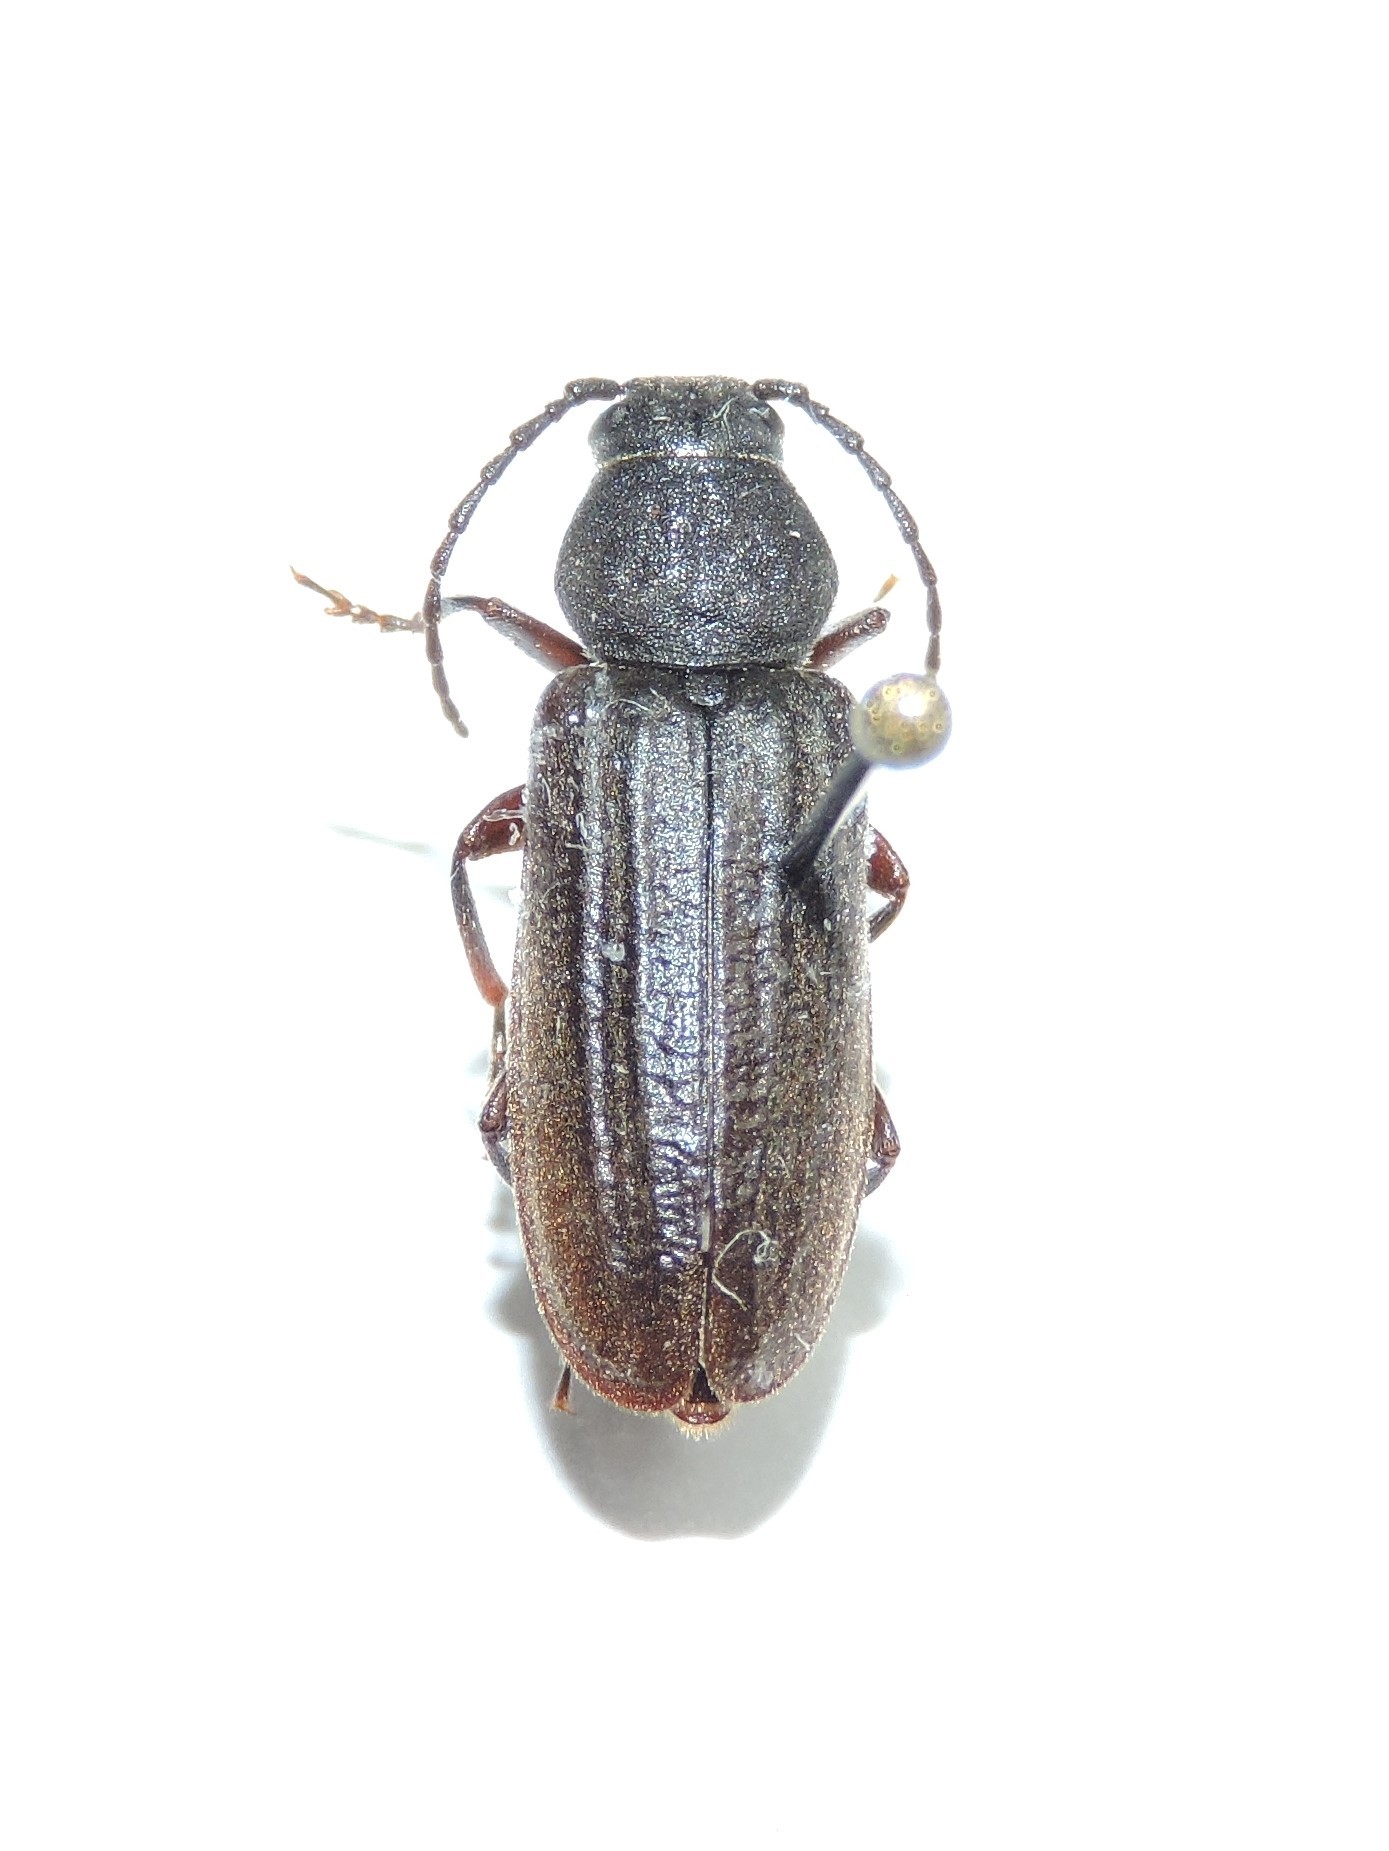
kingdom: Animalia
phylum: Arthropoda
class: Insecta
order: Coleoptera
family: Cerambycidae
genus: Asemum
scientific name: Asemum striatum
